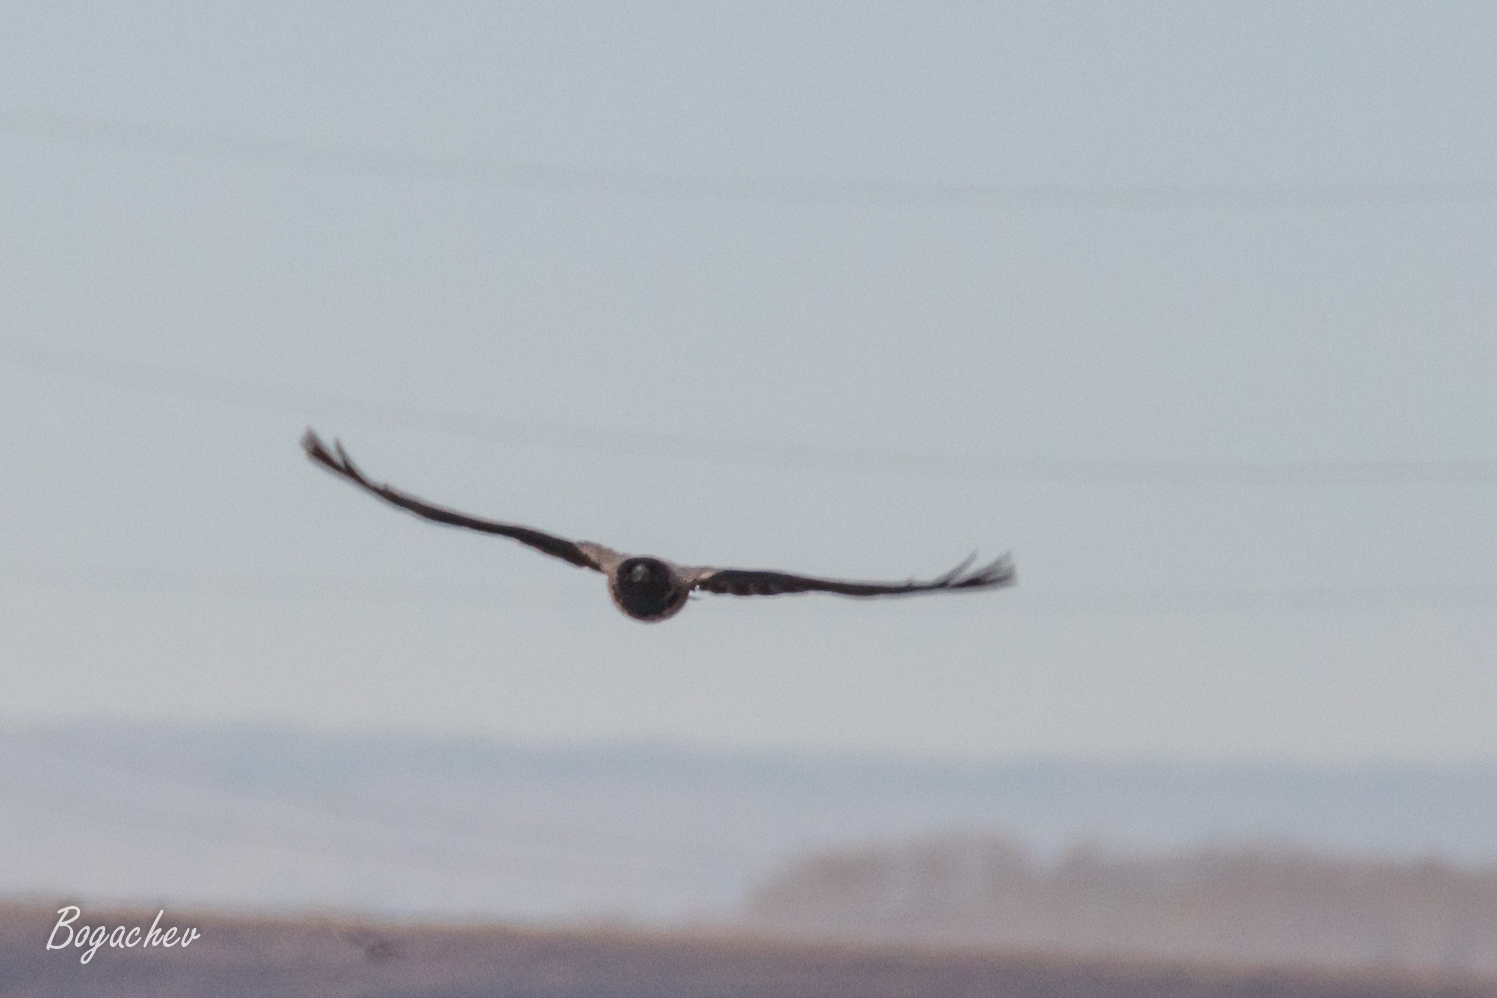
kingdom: Animalia
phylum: Chordata
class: Aves
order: Passeriformes
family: Corvidae
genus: Corvus
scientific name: Corvus cornix
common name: Hooded crow
